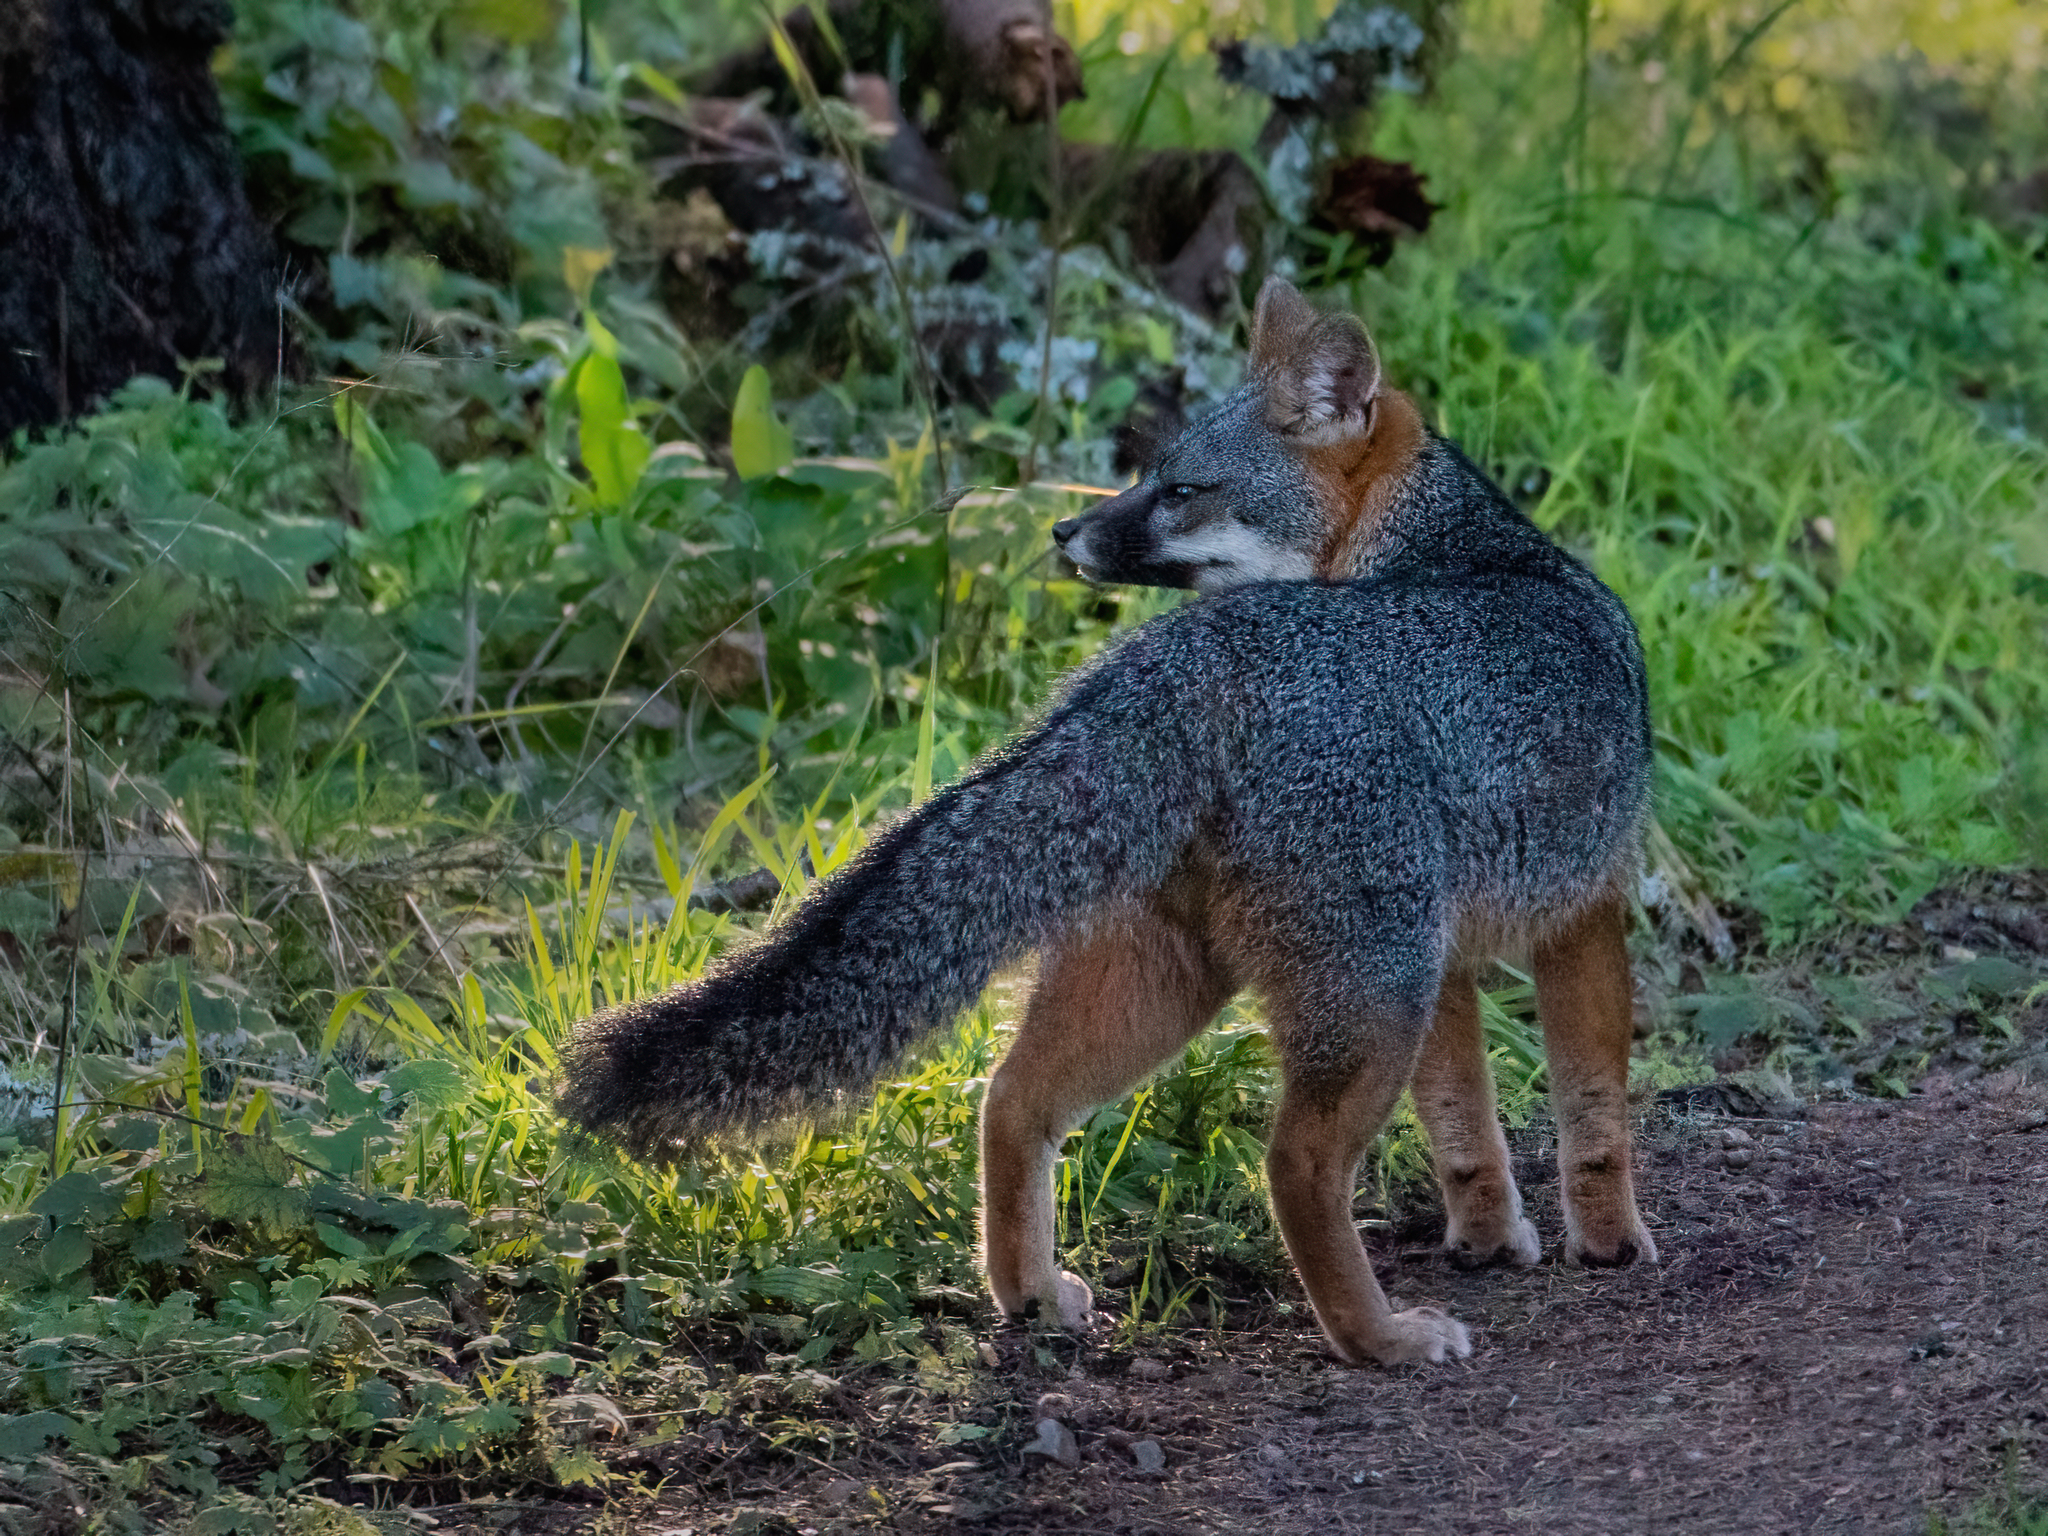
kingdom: Animalia
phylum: Chordata
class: Mammalia
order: Carnivora
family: Canidae
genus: Urocyon
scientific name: Urocyon cinereoargenteus
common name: Gray fox
